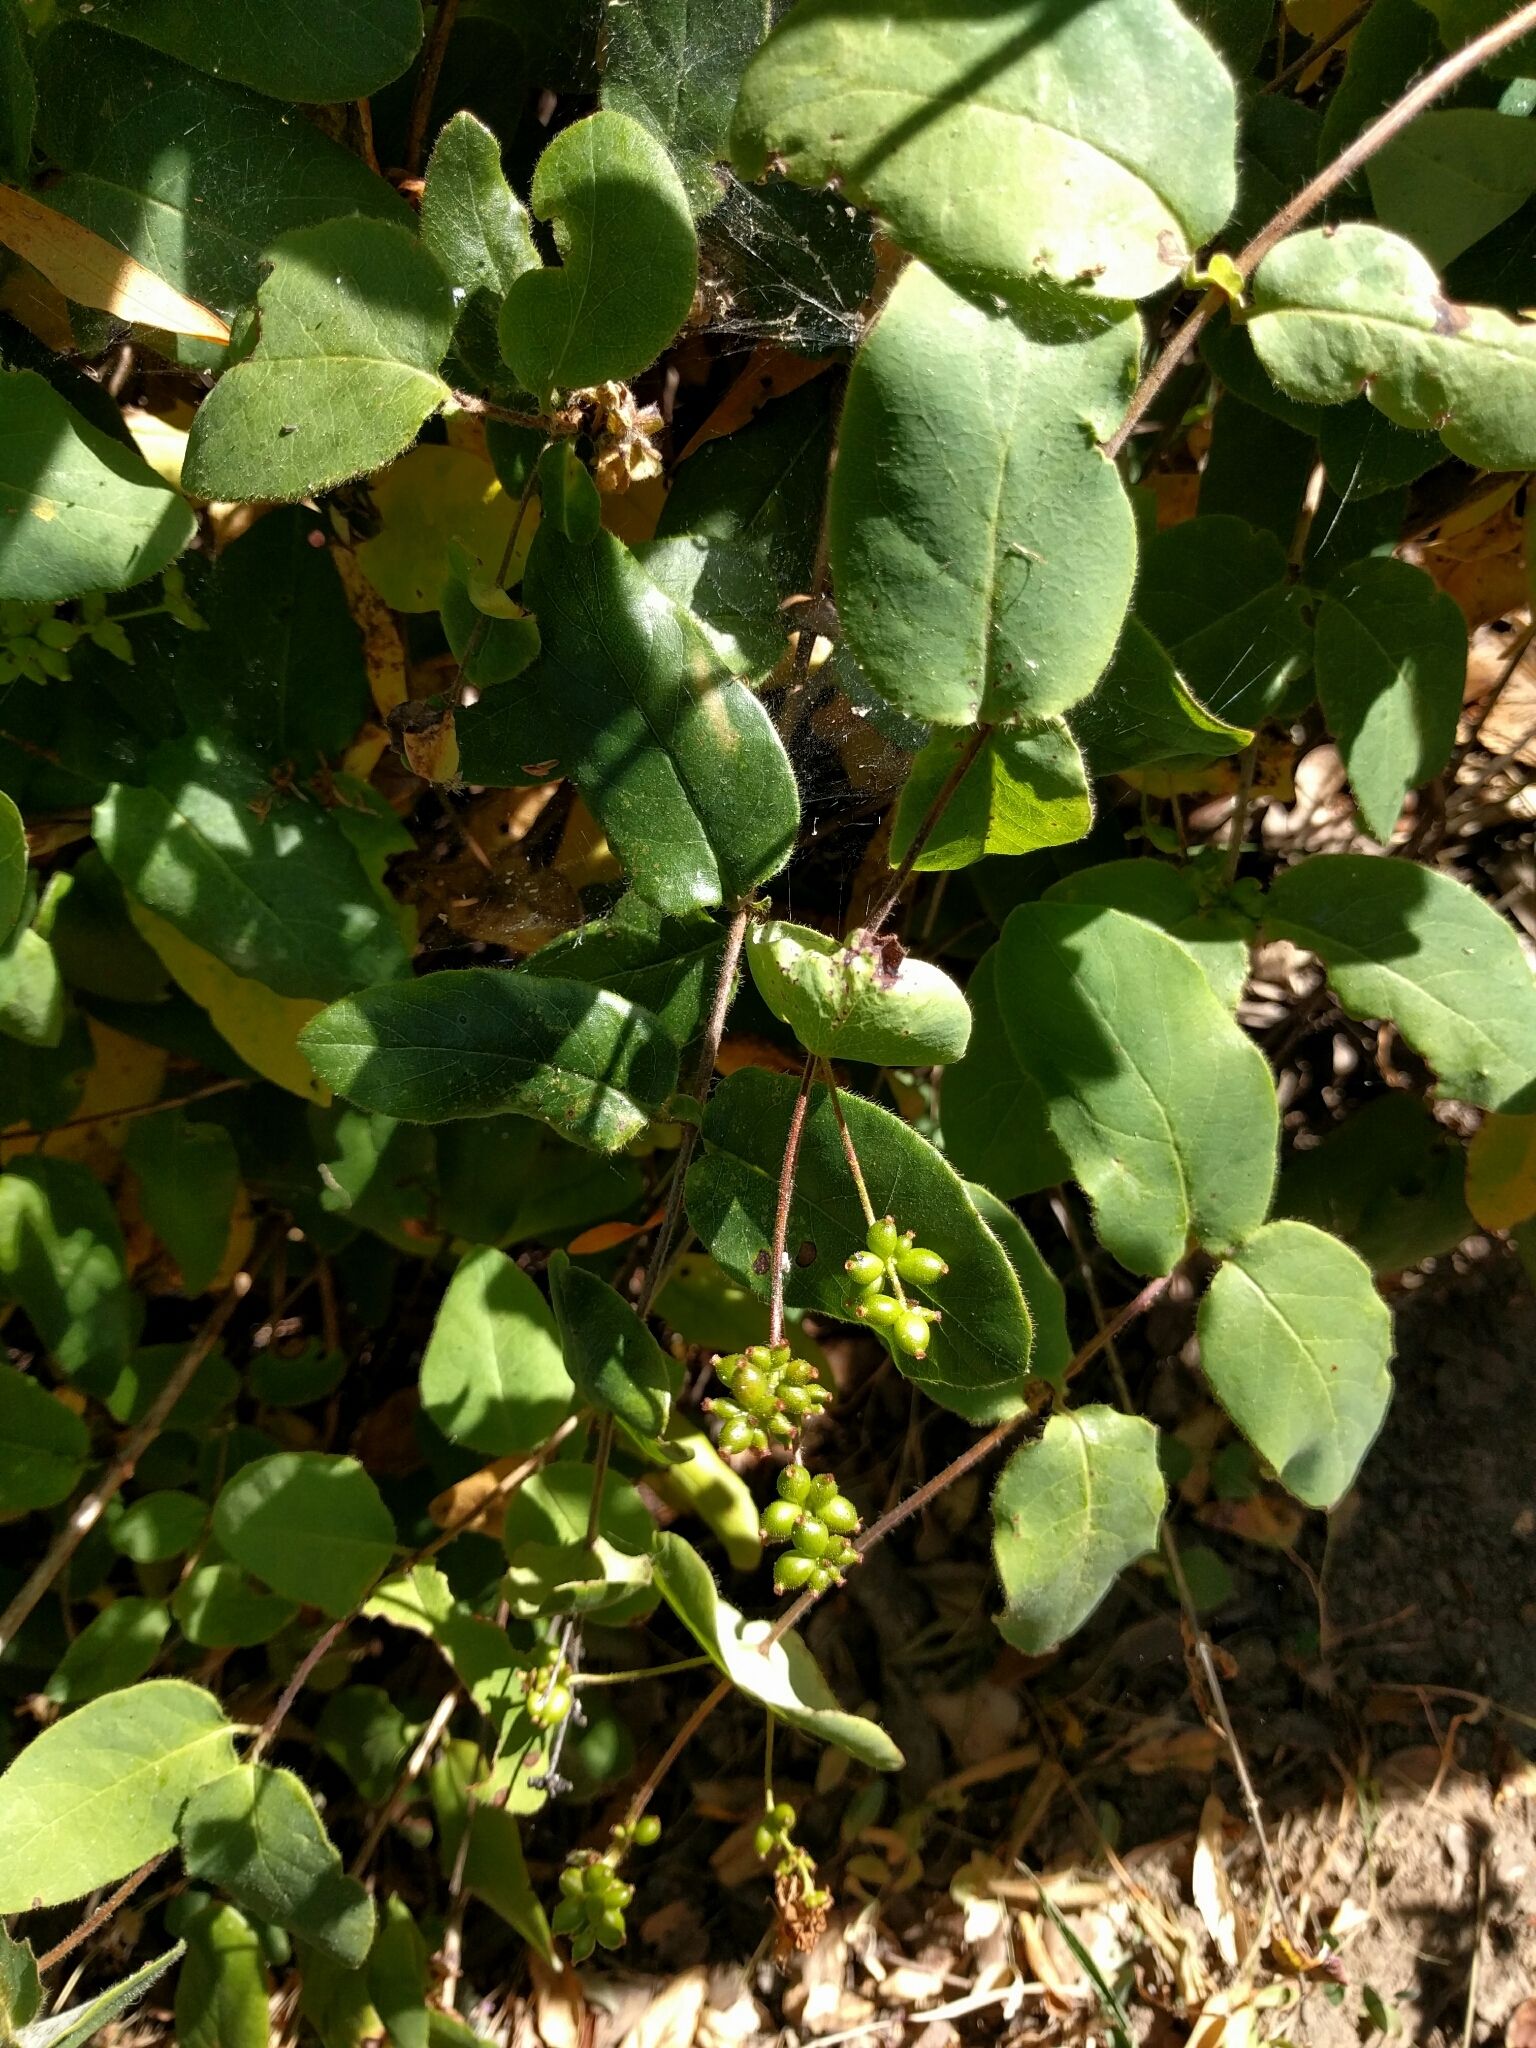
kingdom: Plantae
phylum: Tracheophyta
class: Magnoliopsida
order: Dipsacales
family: Caprifoliaceae
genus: Lonicera
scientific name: Lonicera hispidula
